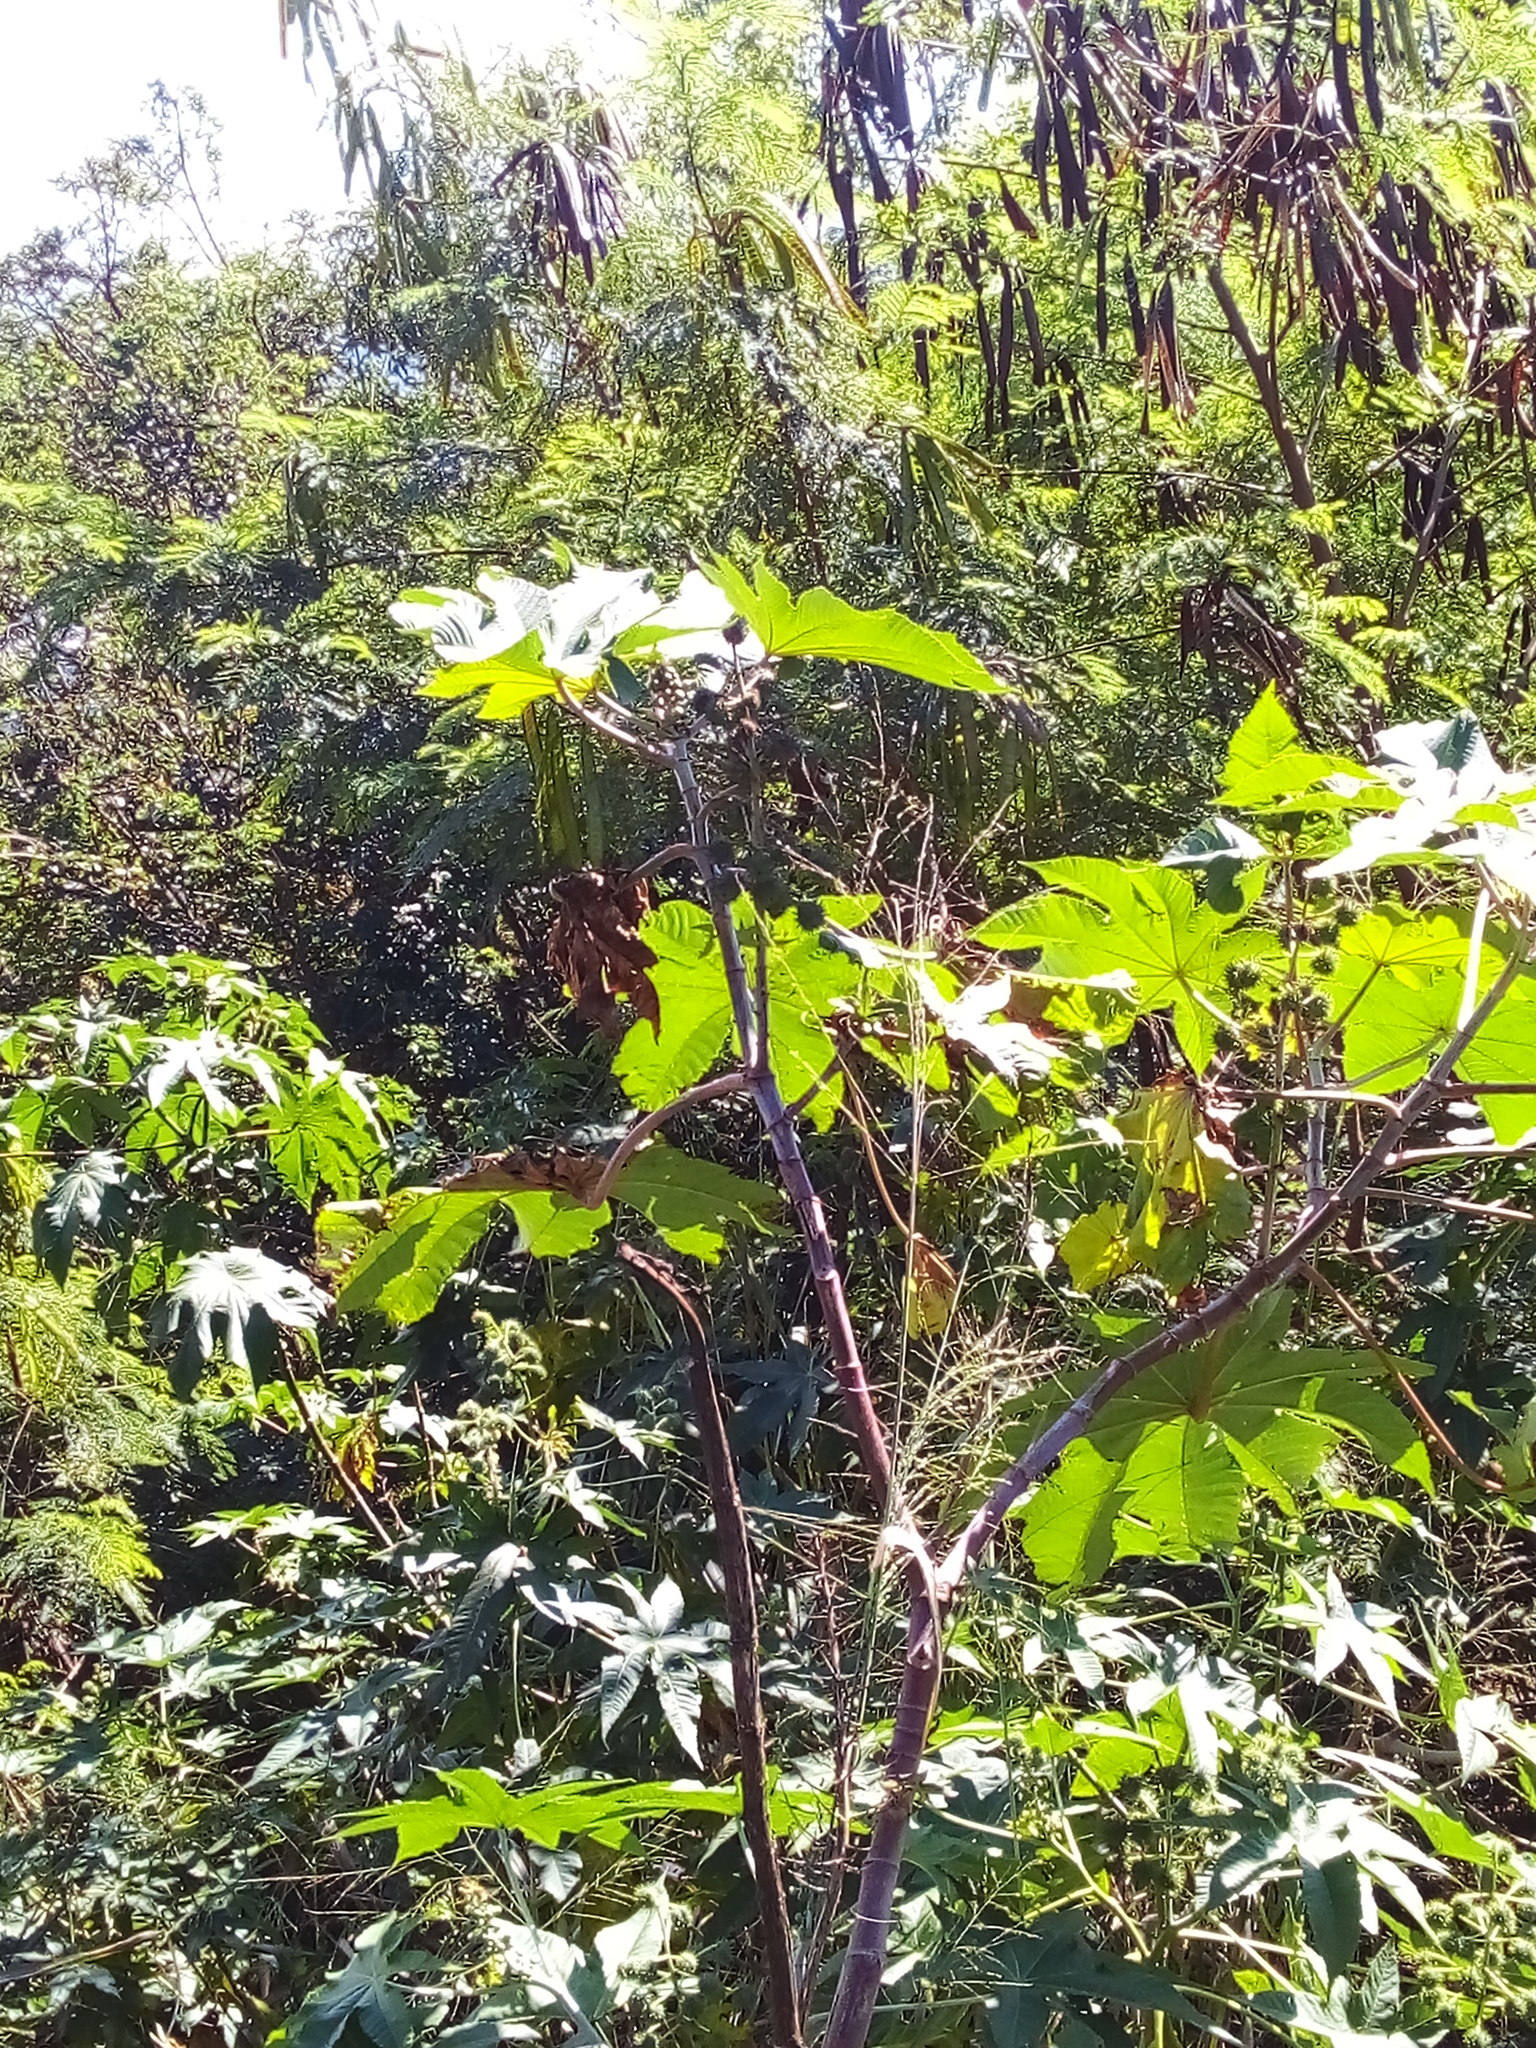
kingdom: Plantae
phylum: Tracheophyta
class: Magnoliopsida
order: Malpighiales
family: Euphorbiaceae
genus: Ricinus
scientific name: Ricinus communis
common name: Castor-oil-plant
